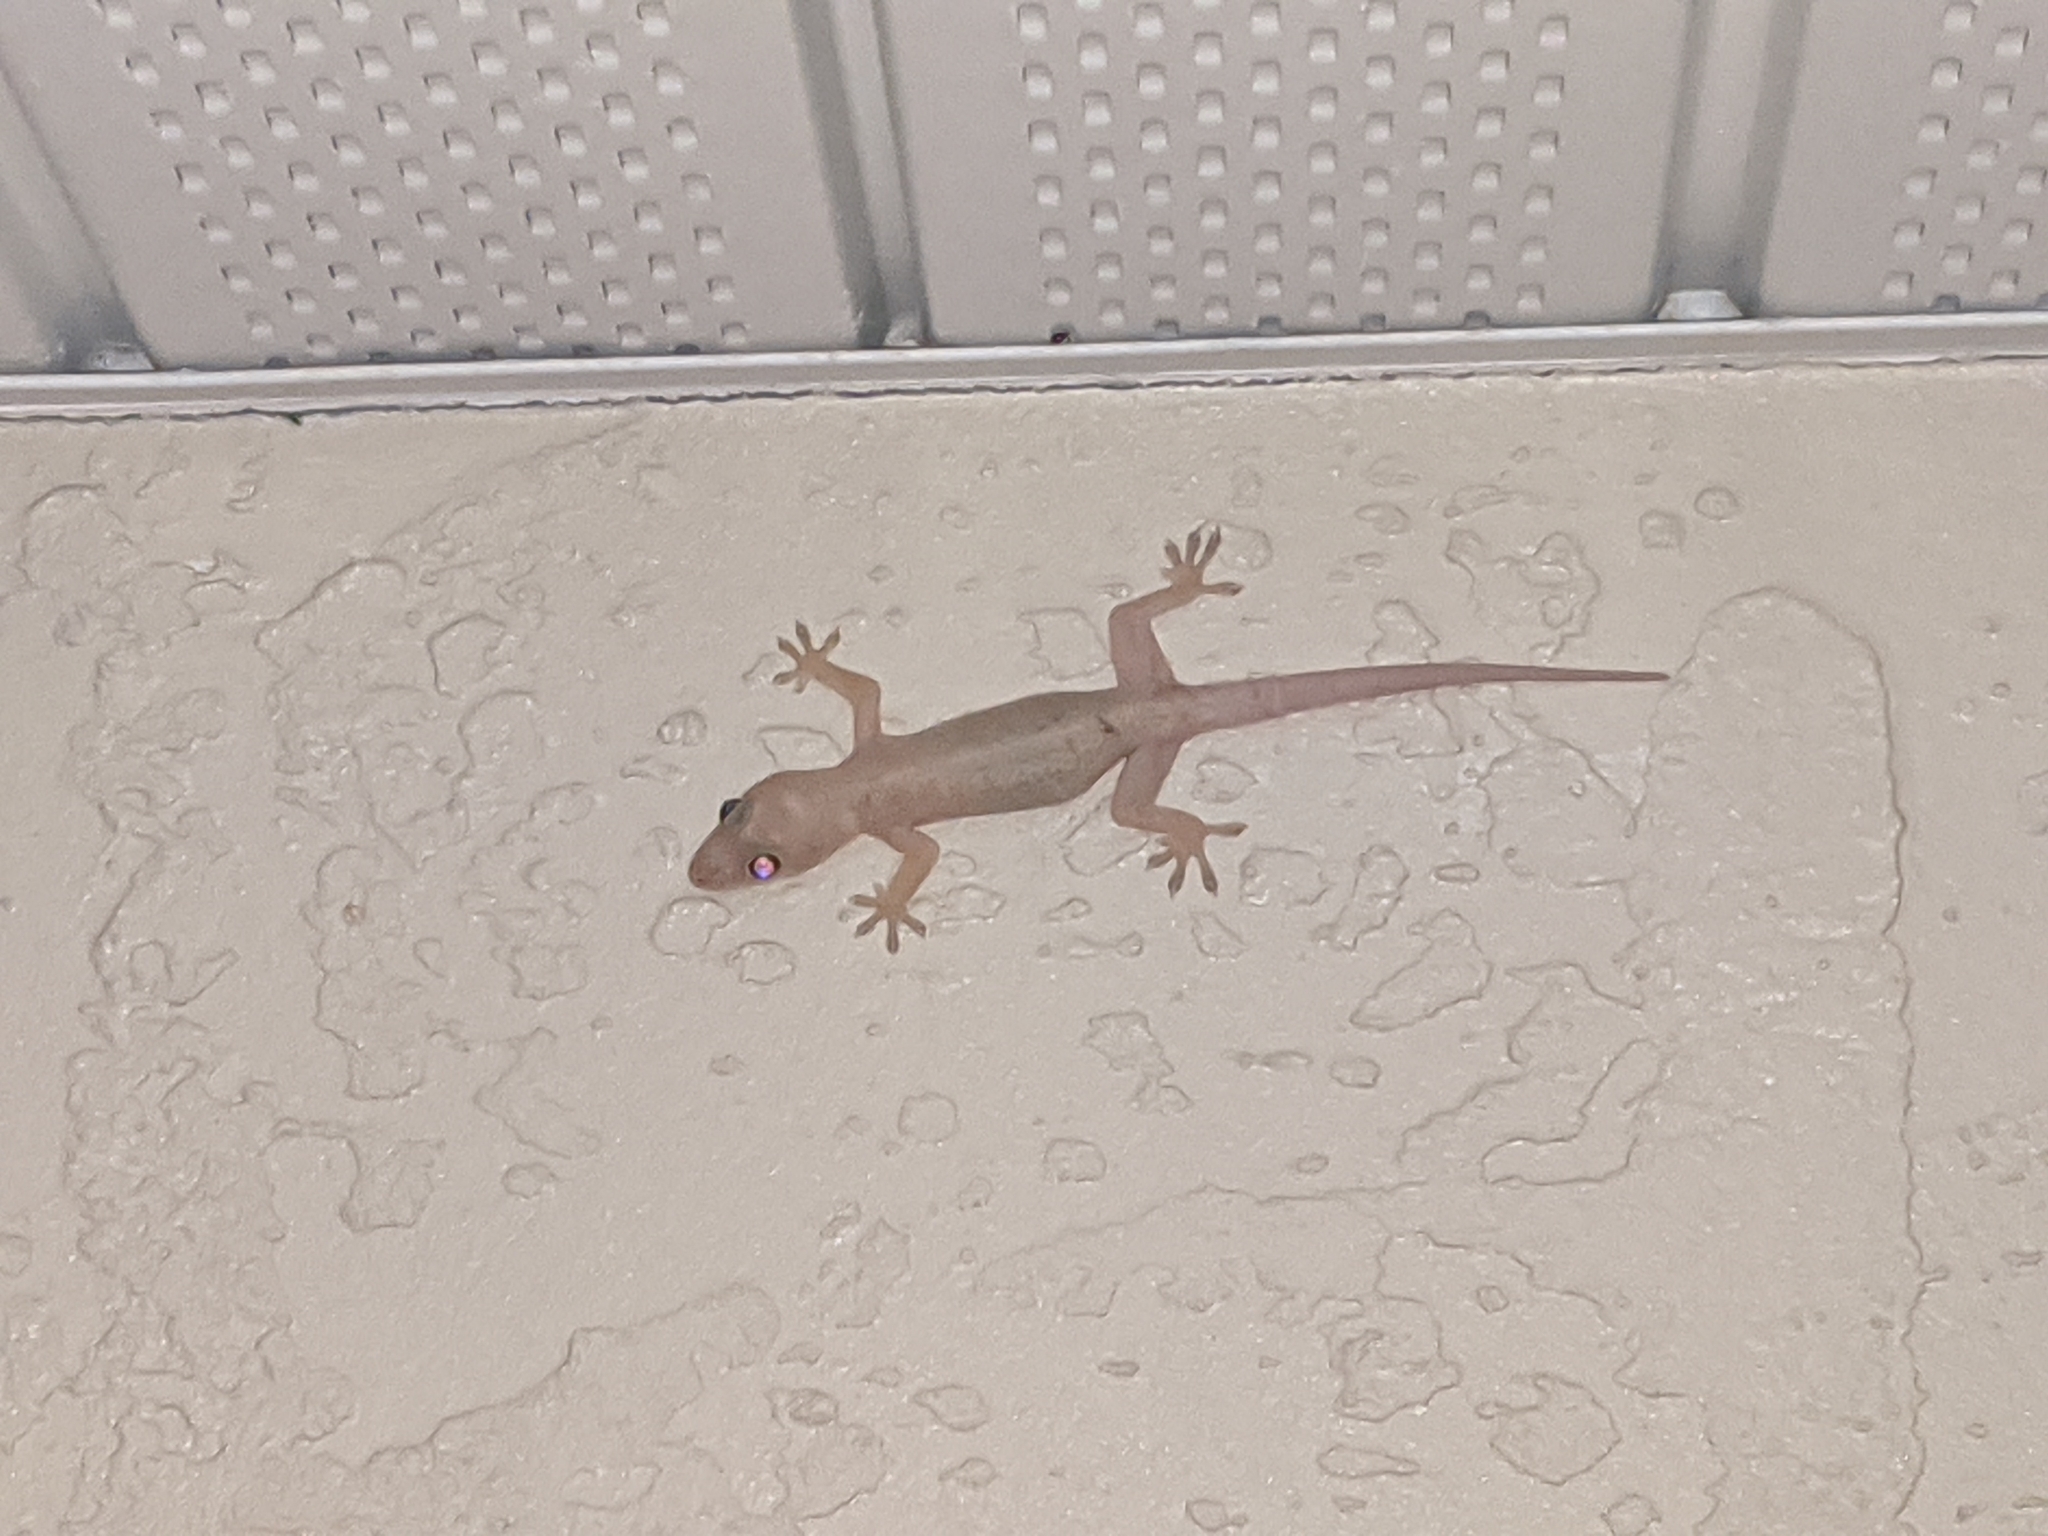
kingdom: Animalia
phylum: Chordata
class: Squamata
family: Gekkonidae
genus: Hemidactylus
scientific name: Hemidactylus mabouia
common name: House gecko
